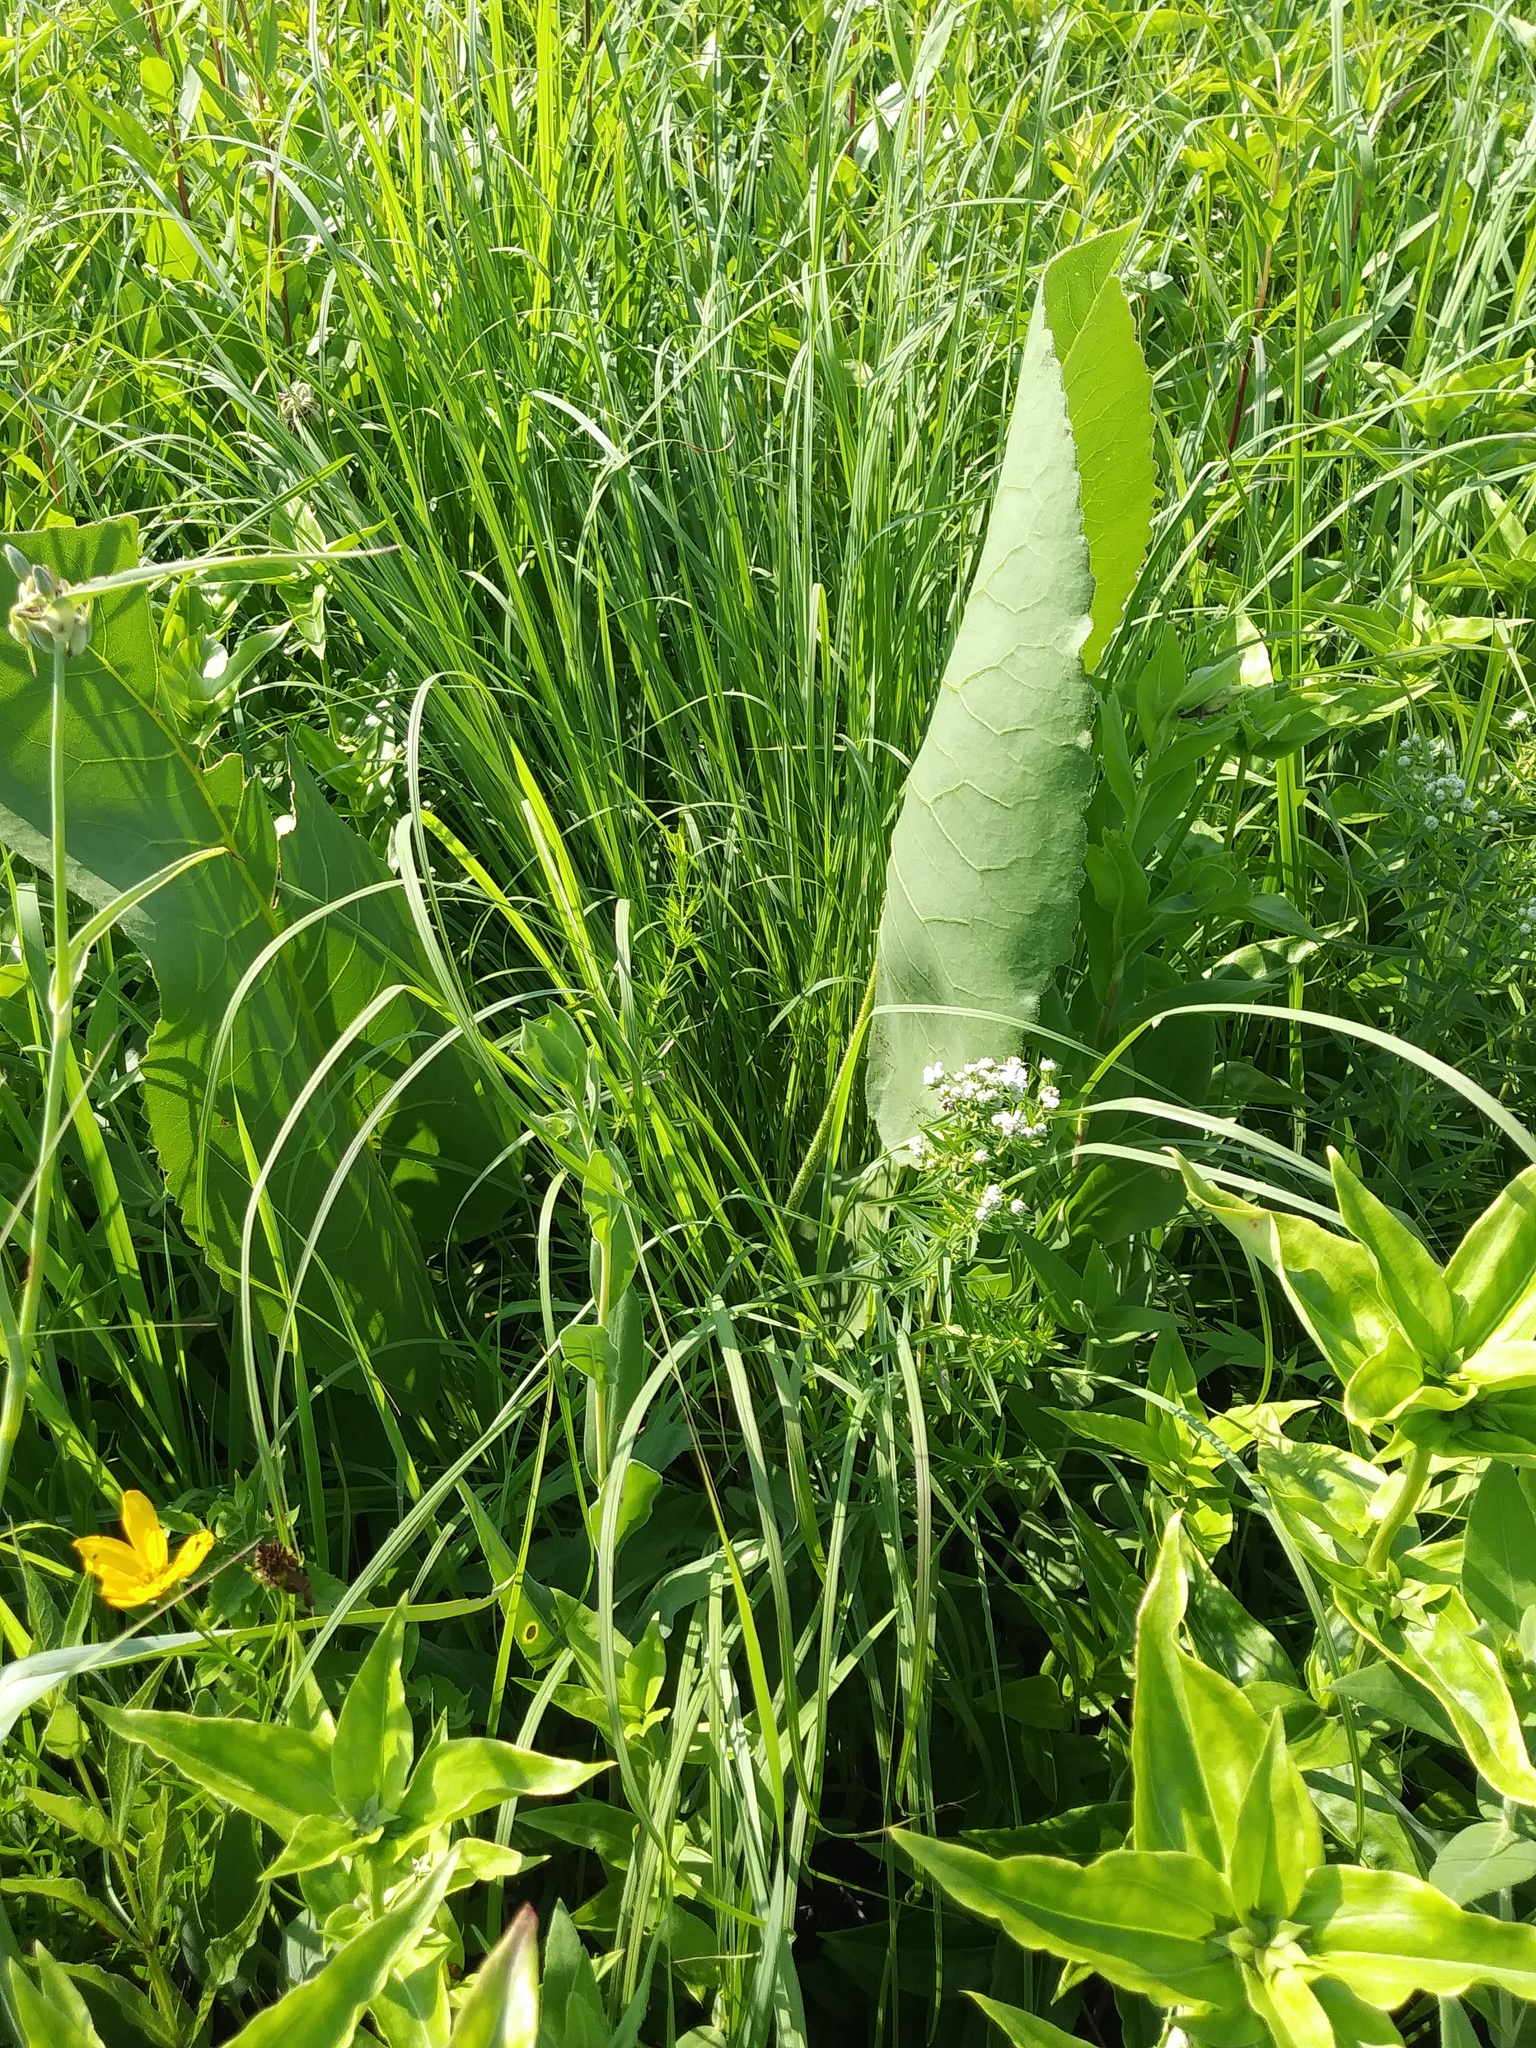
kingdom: Plantae
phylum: Tracheophyta
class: Magnoliopsida
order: Asterales
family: Asteraceae
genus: Silphium
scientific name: Silphium terebinthinaceum
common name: Basal-leaf rosinweed
